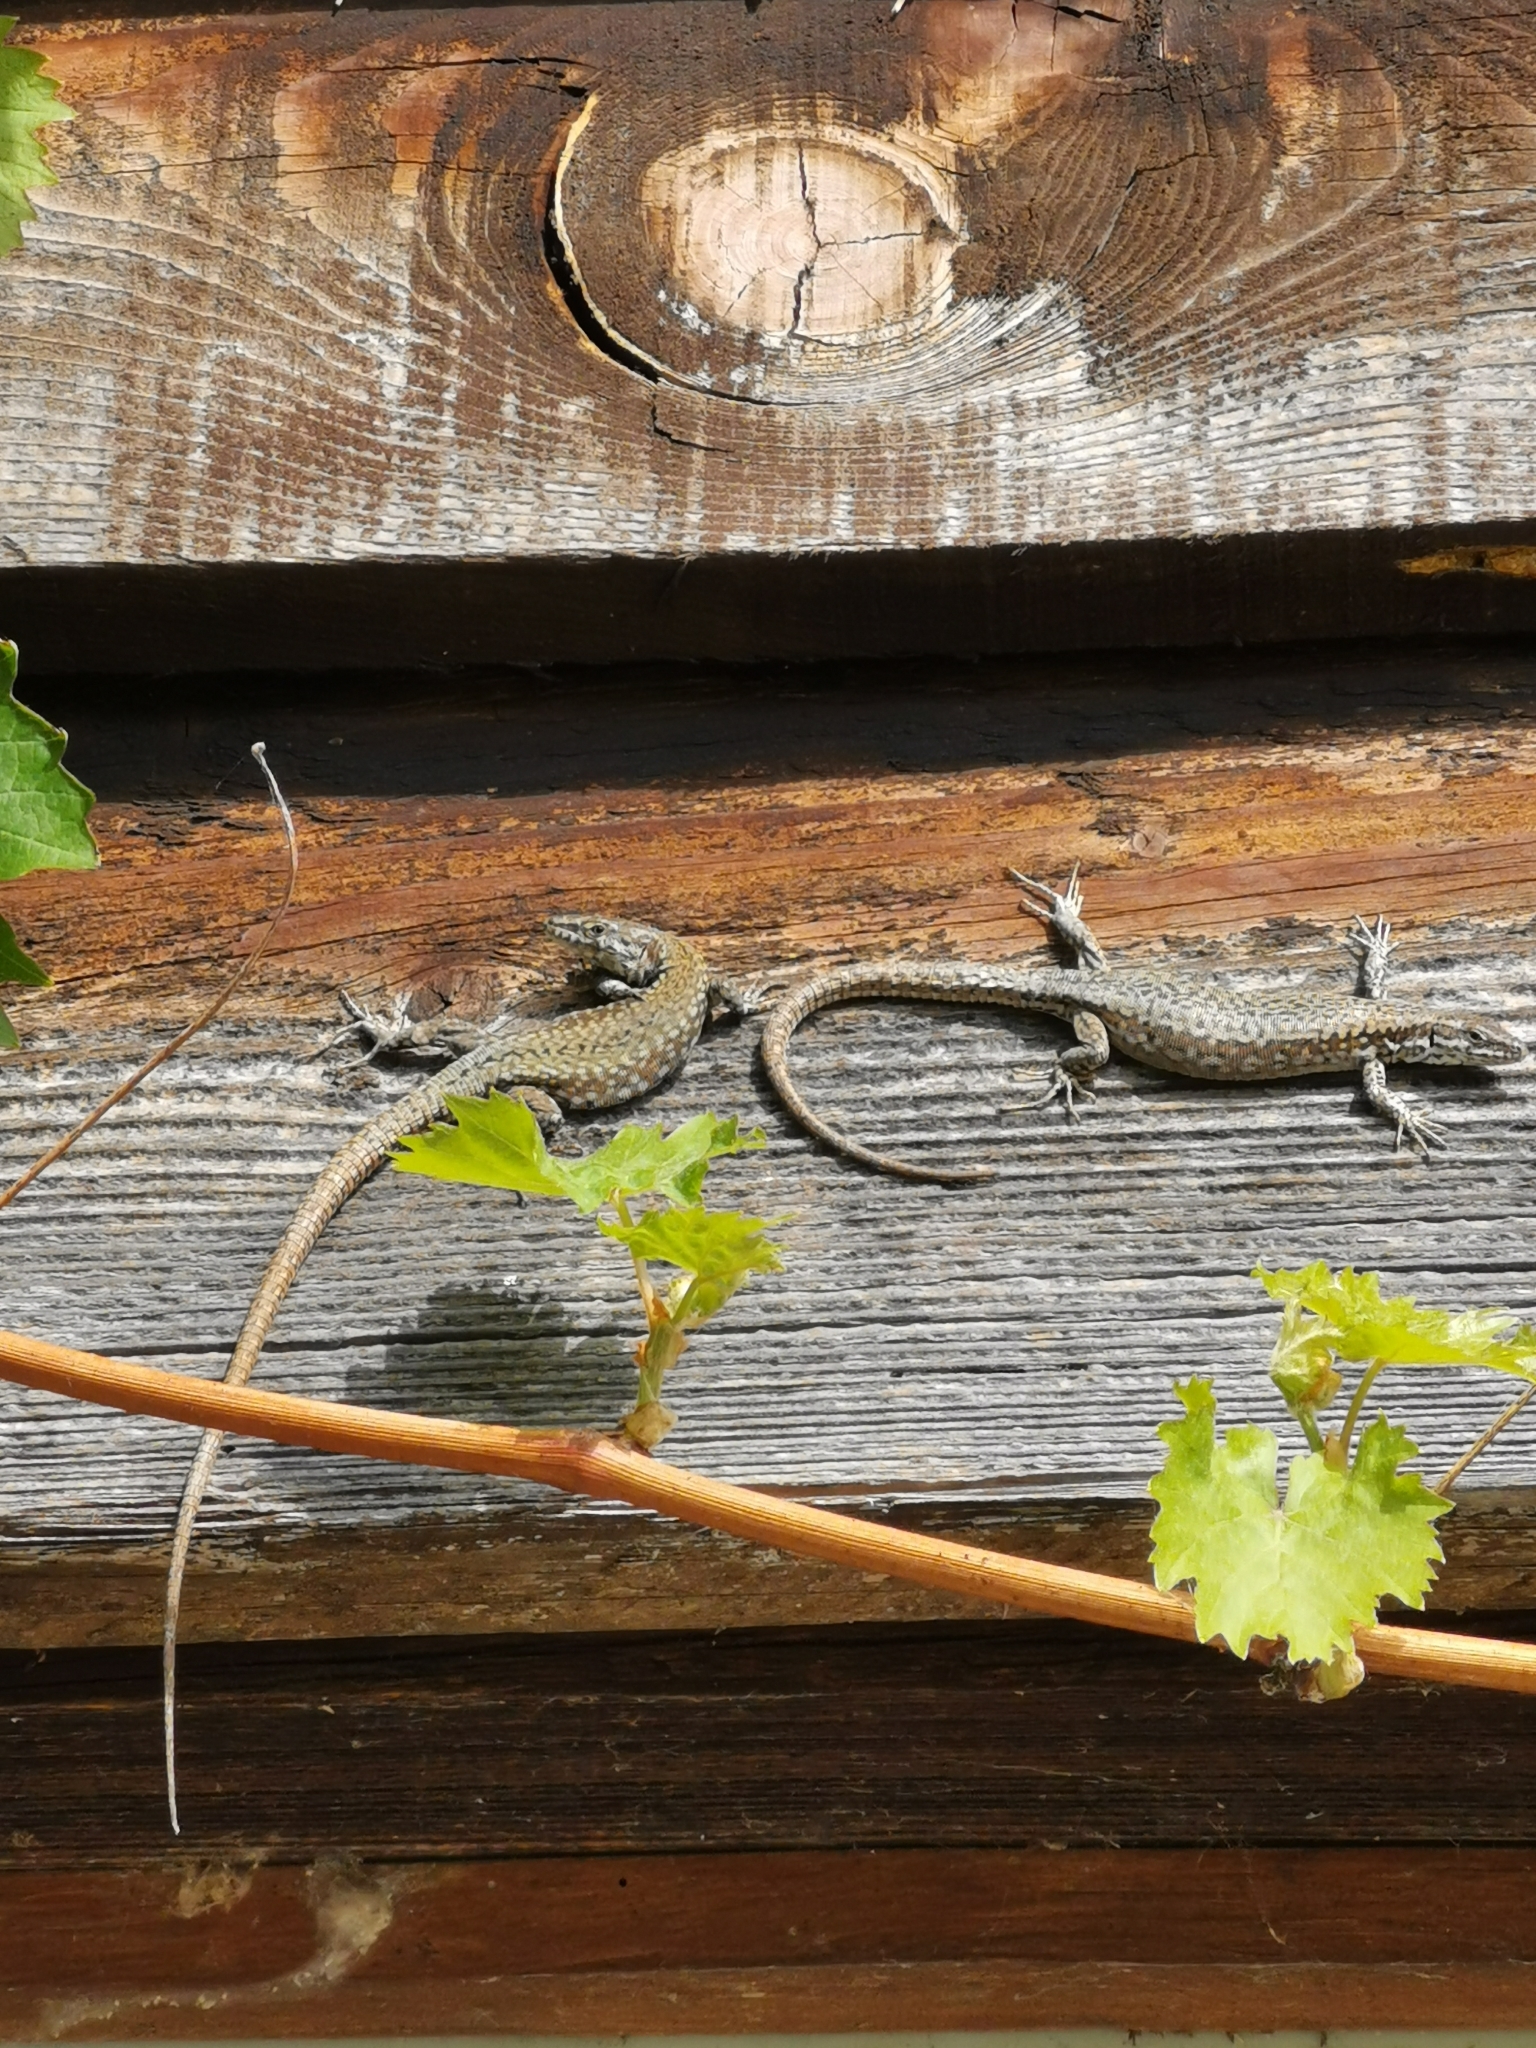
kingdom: Animalia
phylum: Chordata
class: Squamata
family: Lacertidae
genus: Podarcis
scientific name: Podarcis muralis
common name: Common wall lizard
